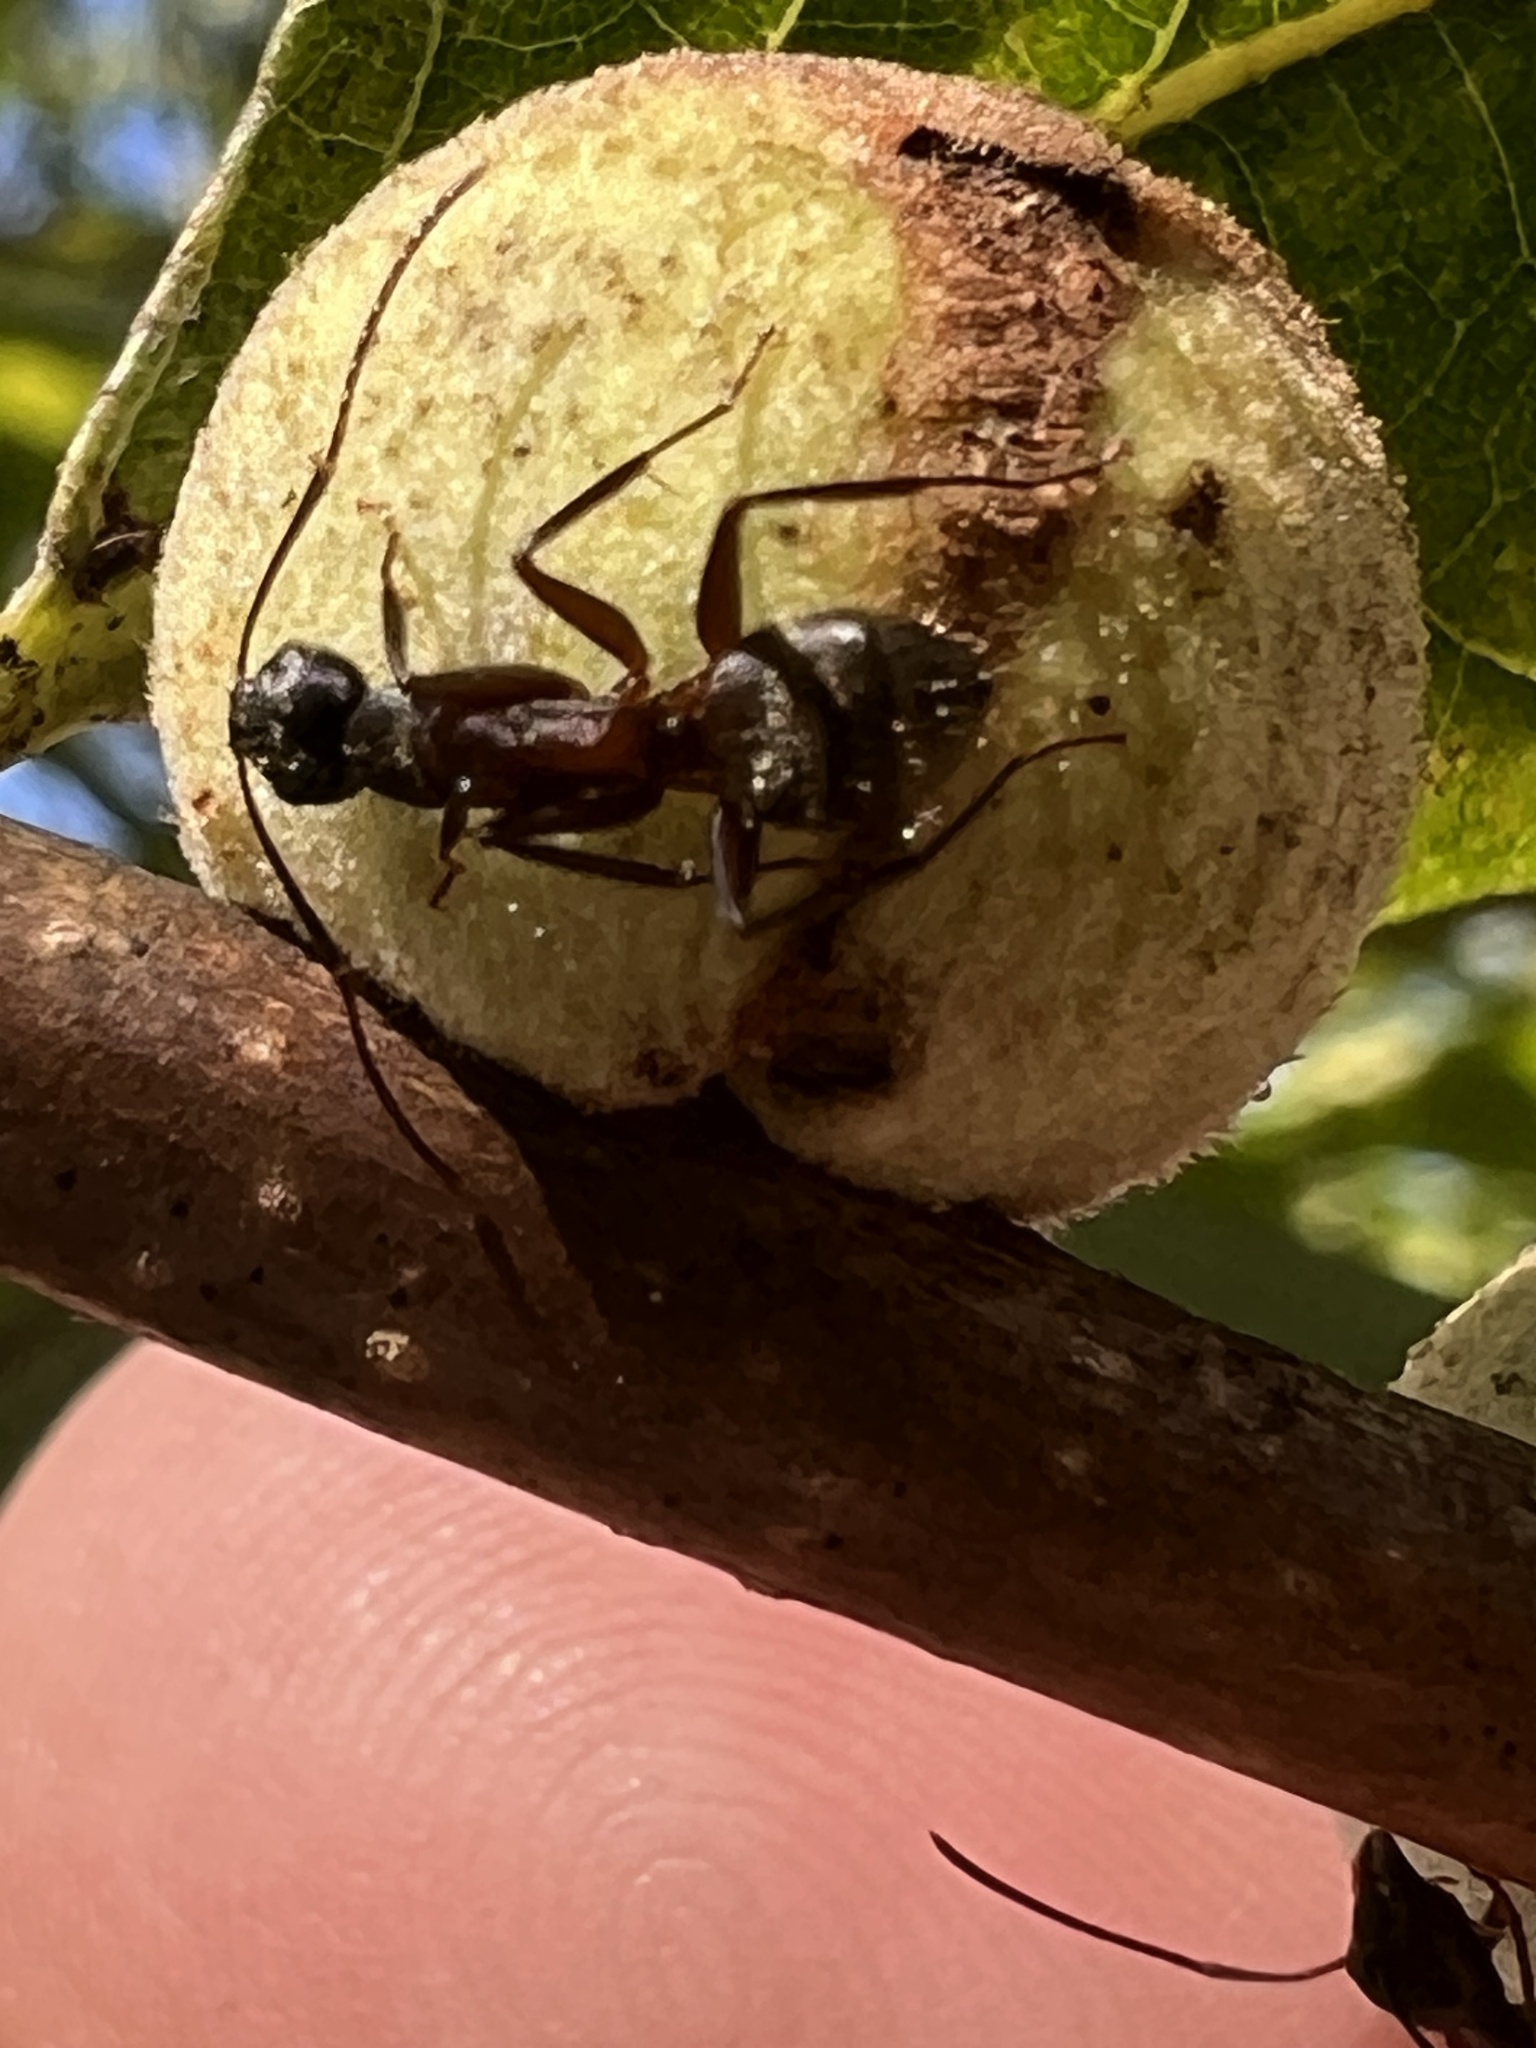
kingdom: Animalia
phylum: Arthropoda
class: Insecta
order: Hymenoptera
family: Cynipidae
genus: Disholcaspis
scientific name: Disholcaspis
